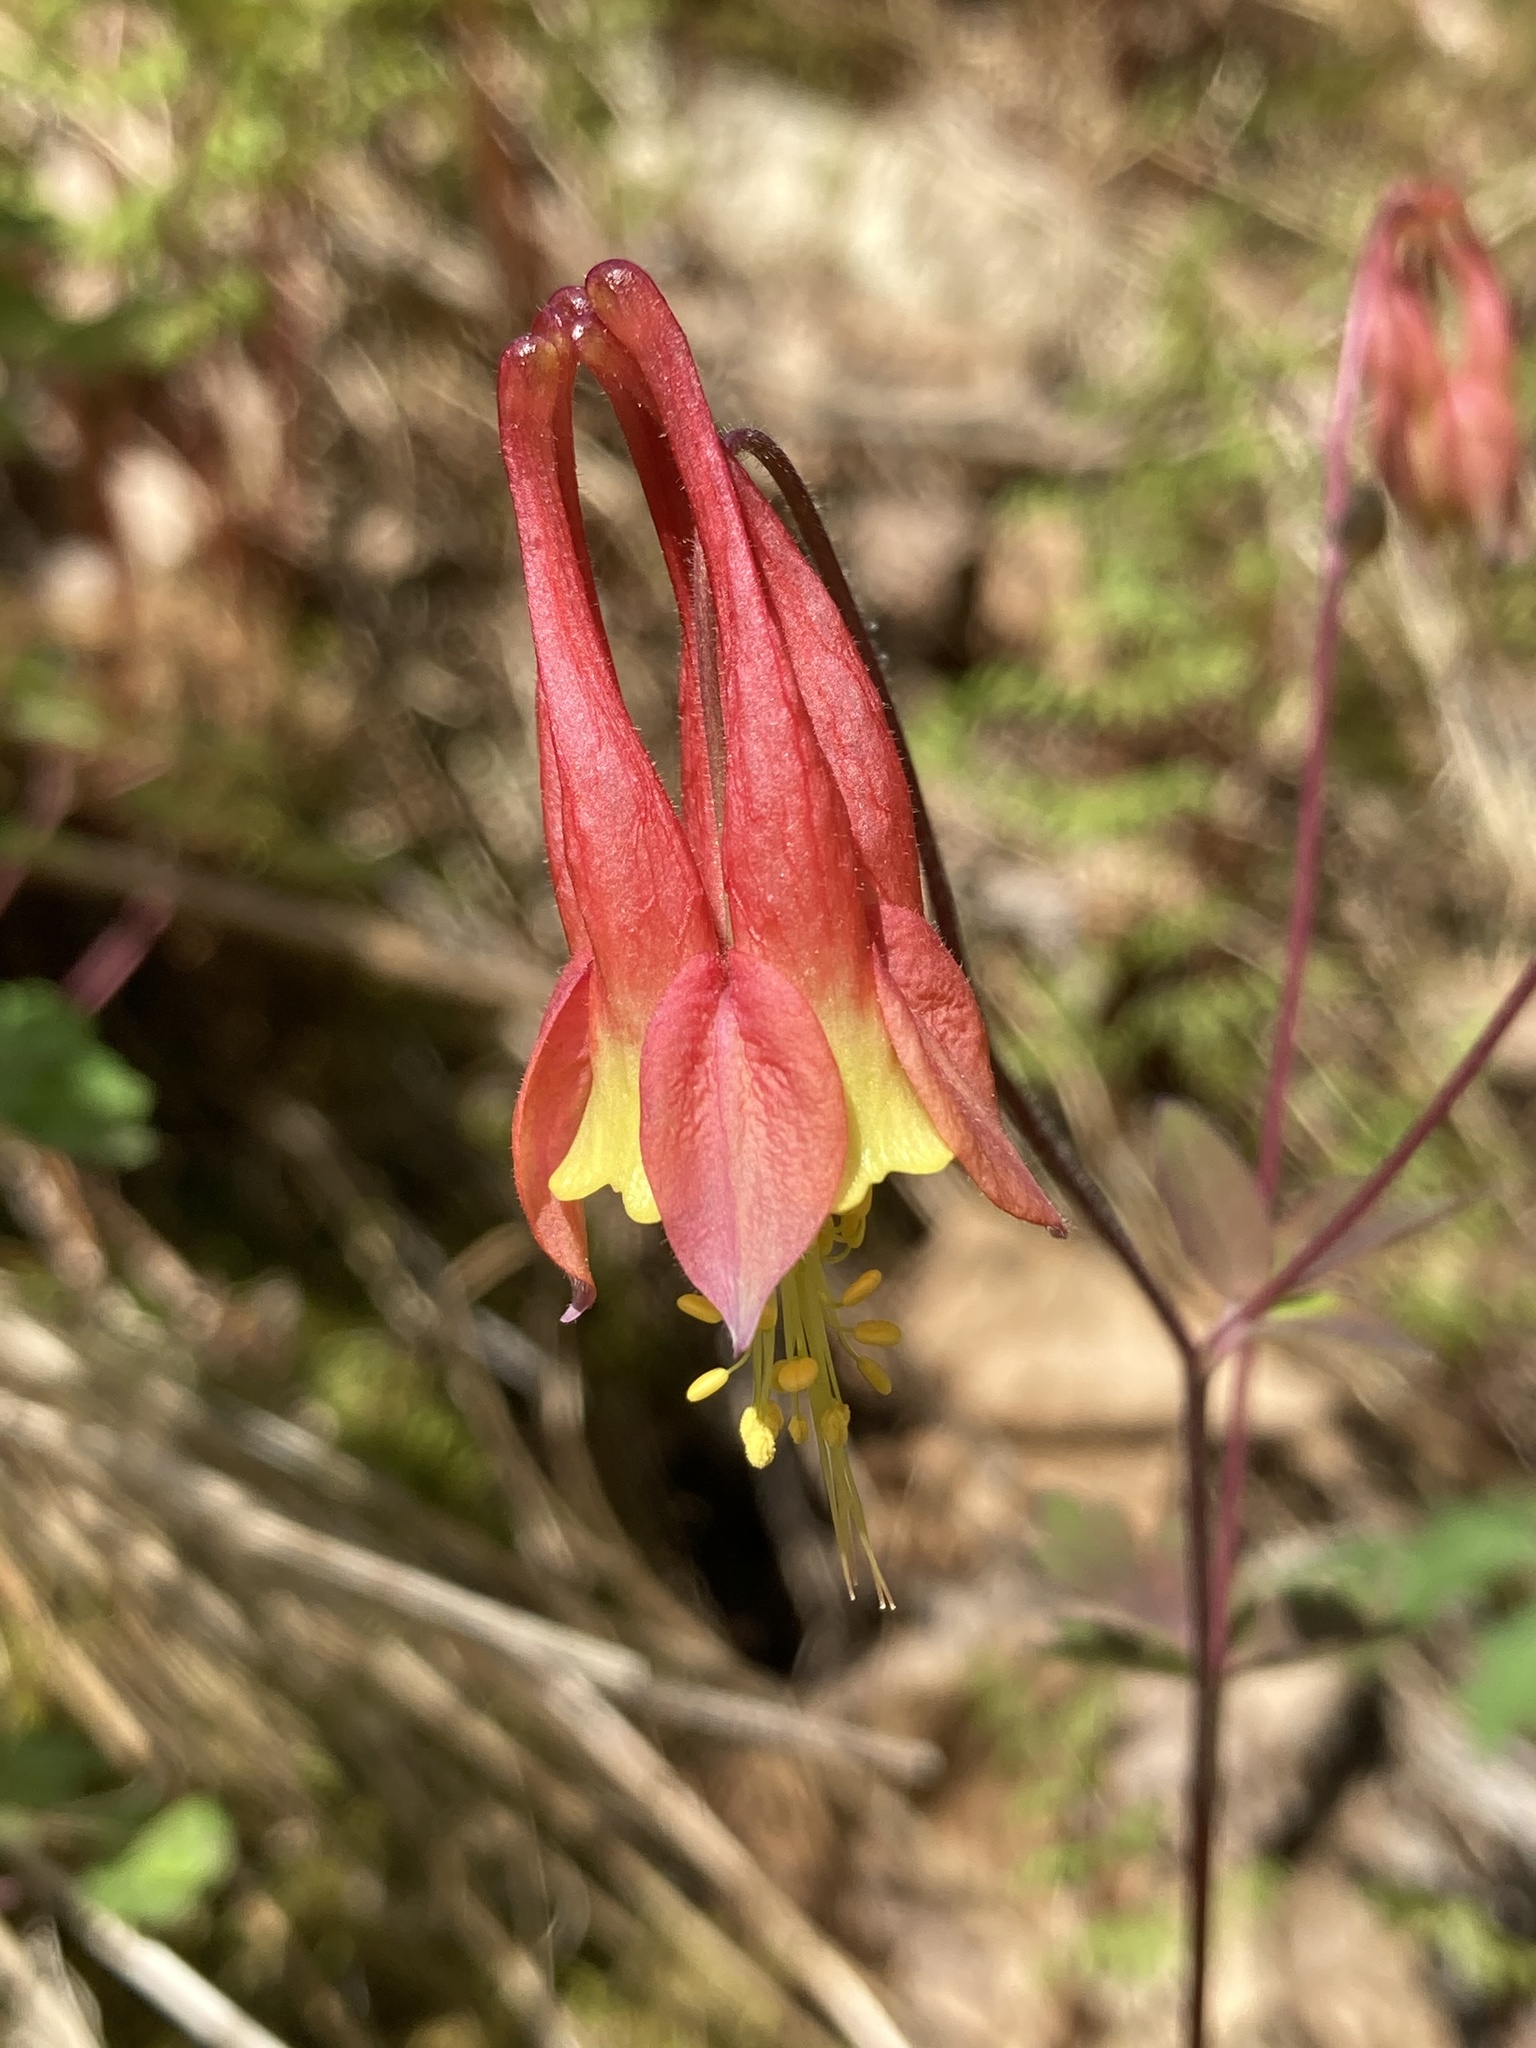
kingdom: Plantae
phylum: Tracheophyta
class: Magnoliopsida
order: Ranunculales
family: Ranunculaceae
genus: Aquilegia
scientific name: Aquilegia canadensis
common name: American columbine
